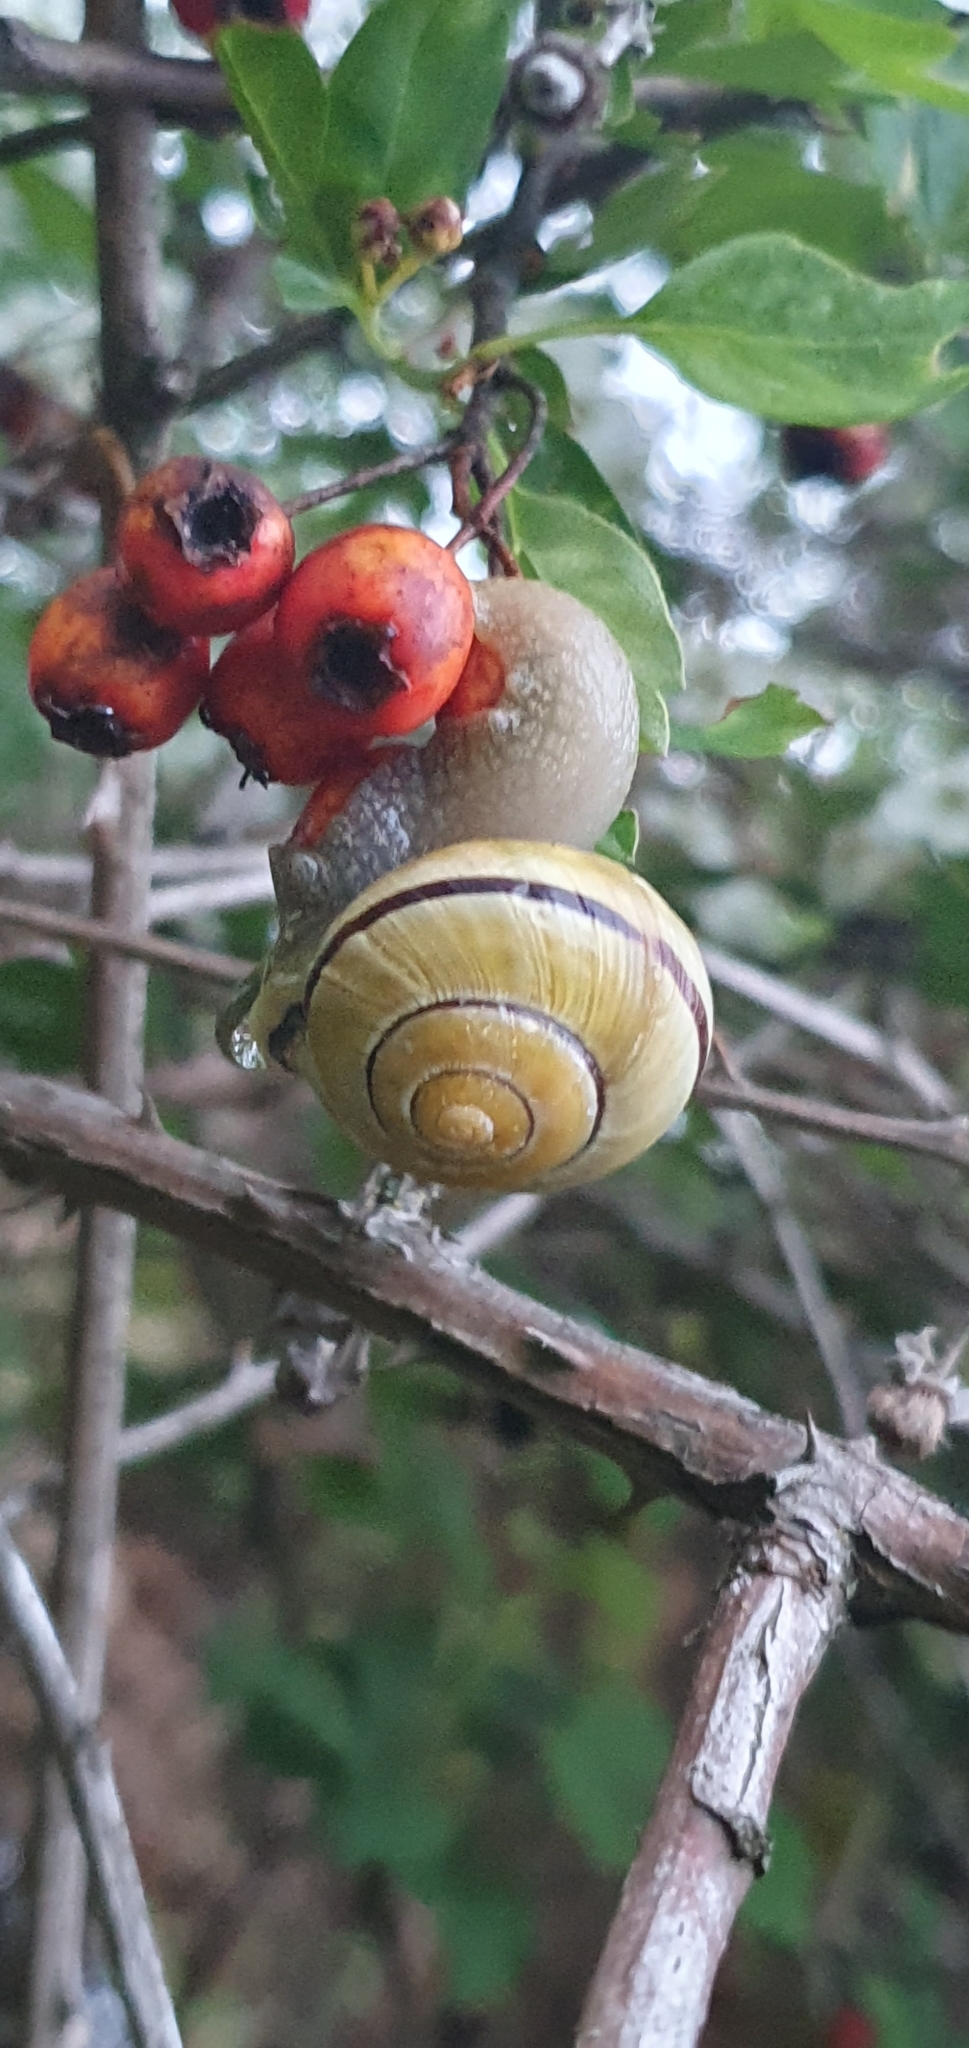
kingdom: Animalia
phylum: Mollusca
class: Gastropoda
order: Stylommatophora
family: Helicidae
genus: Cepaea
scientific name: Cepaea nemoralis
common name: Grovesnail
